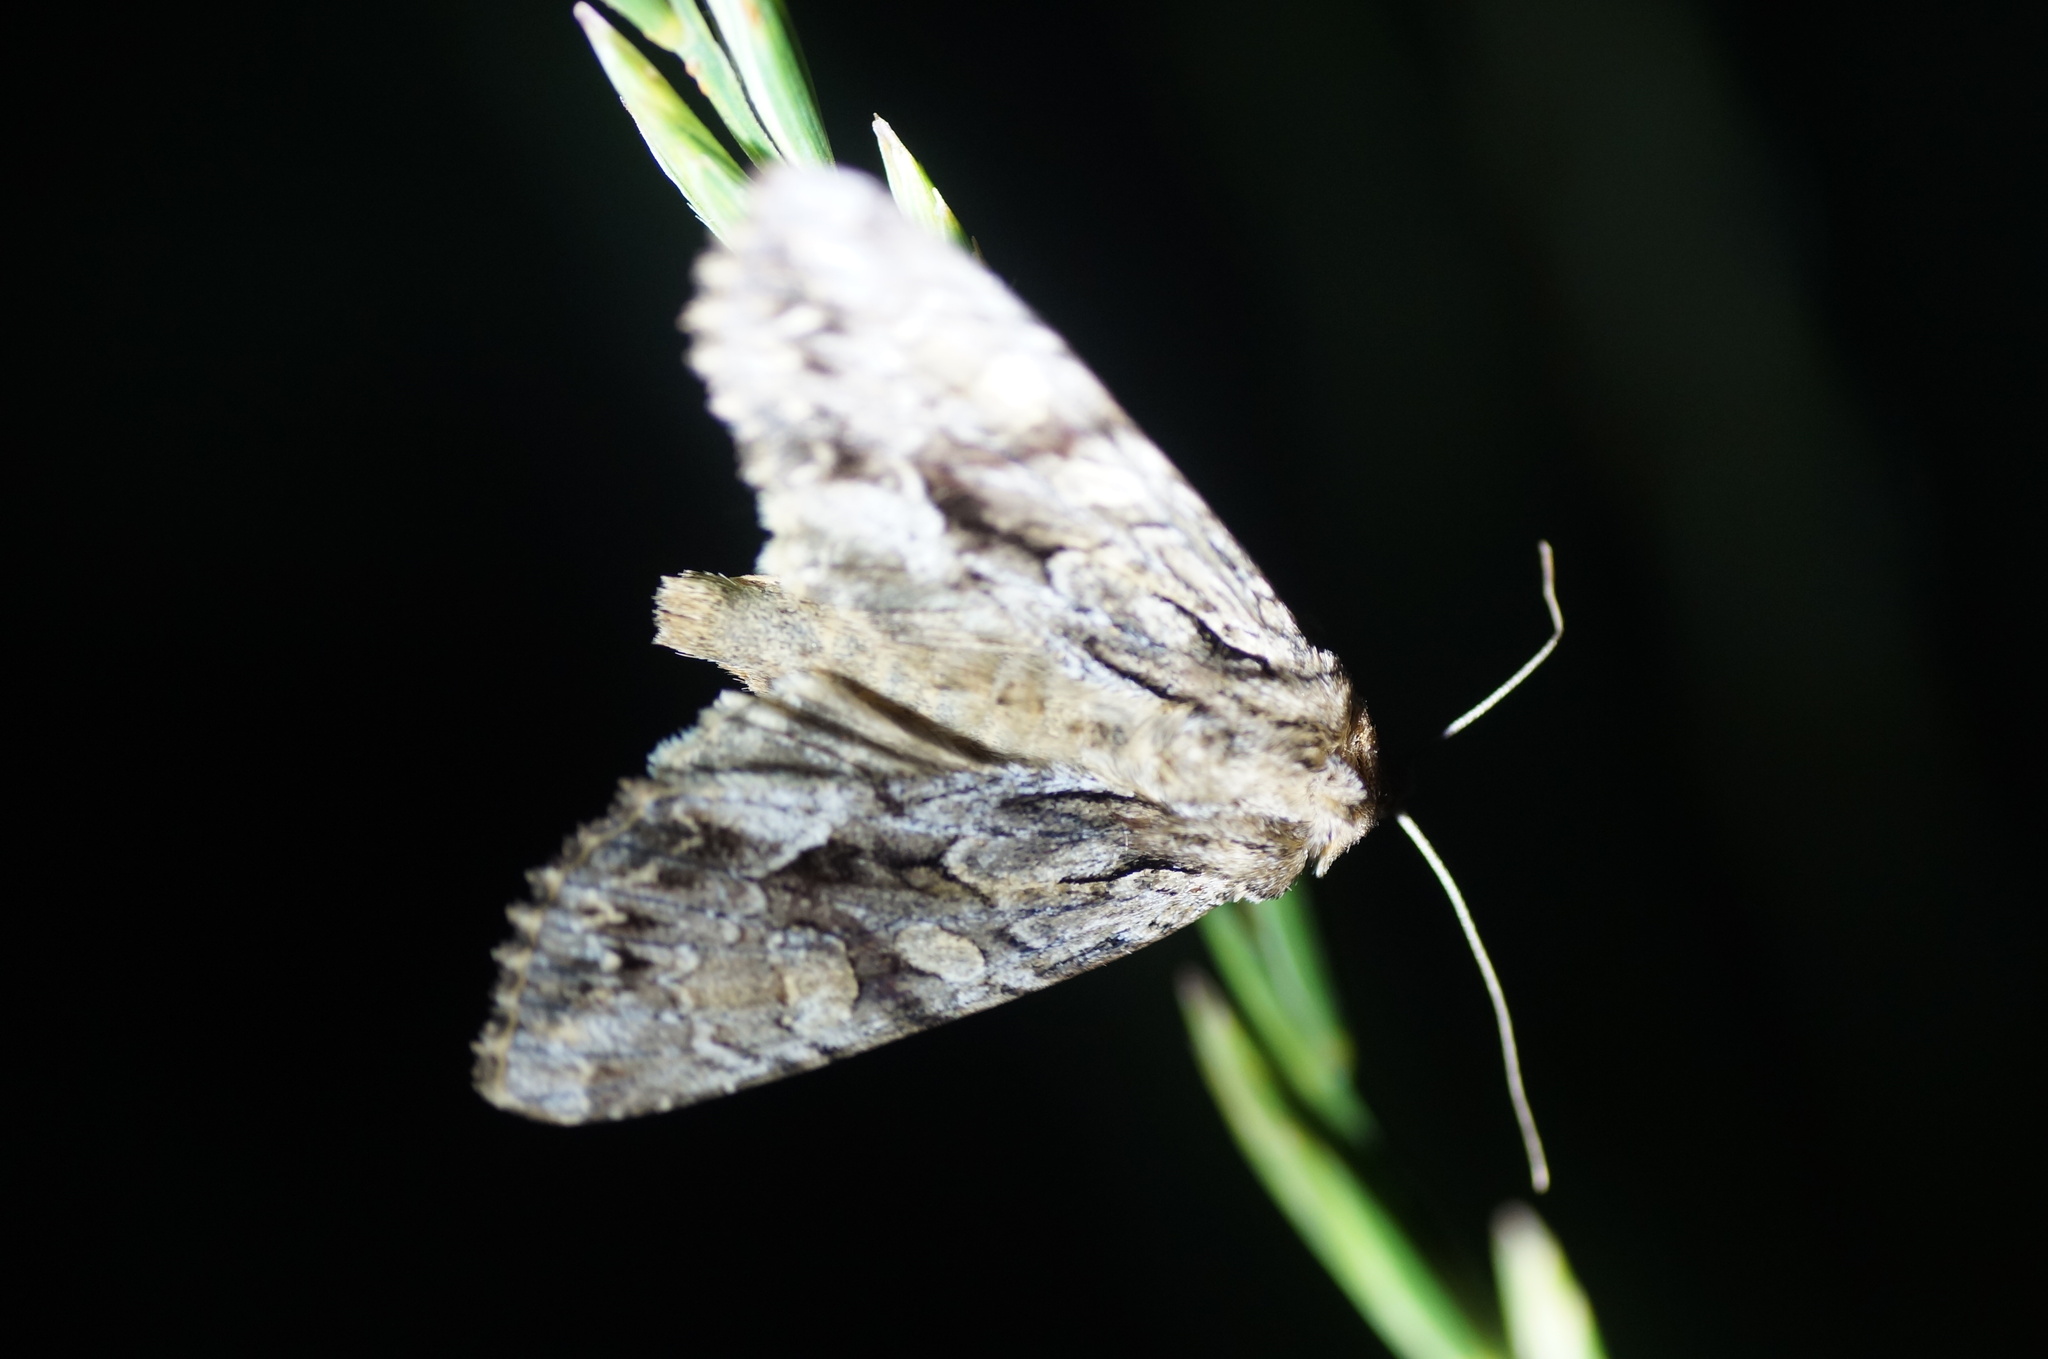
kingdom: Animalia
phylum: Arthropoda
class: Insecta
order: Lepidoptera
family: Noctuidae
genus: Apamea
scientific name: Apamea monoglypha
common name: Dark arches
